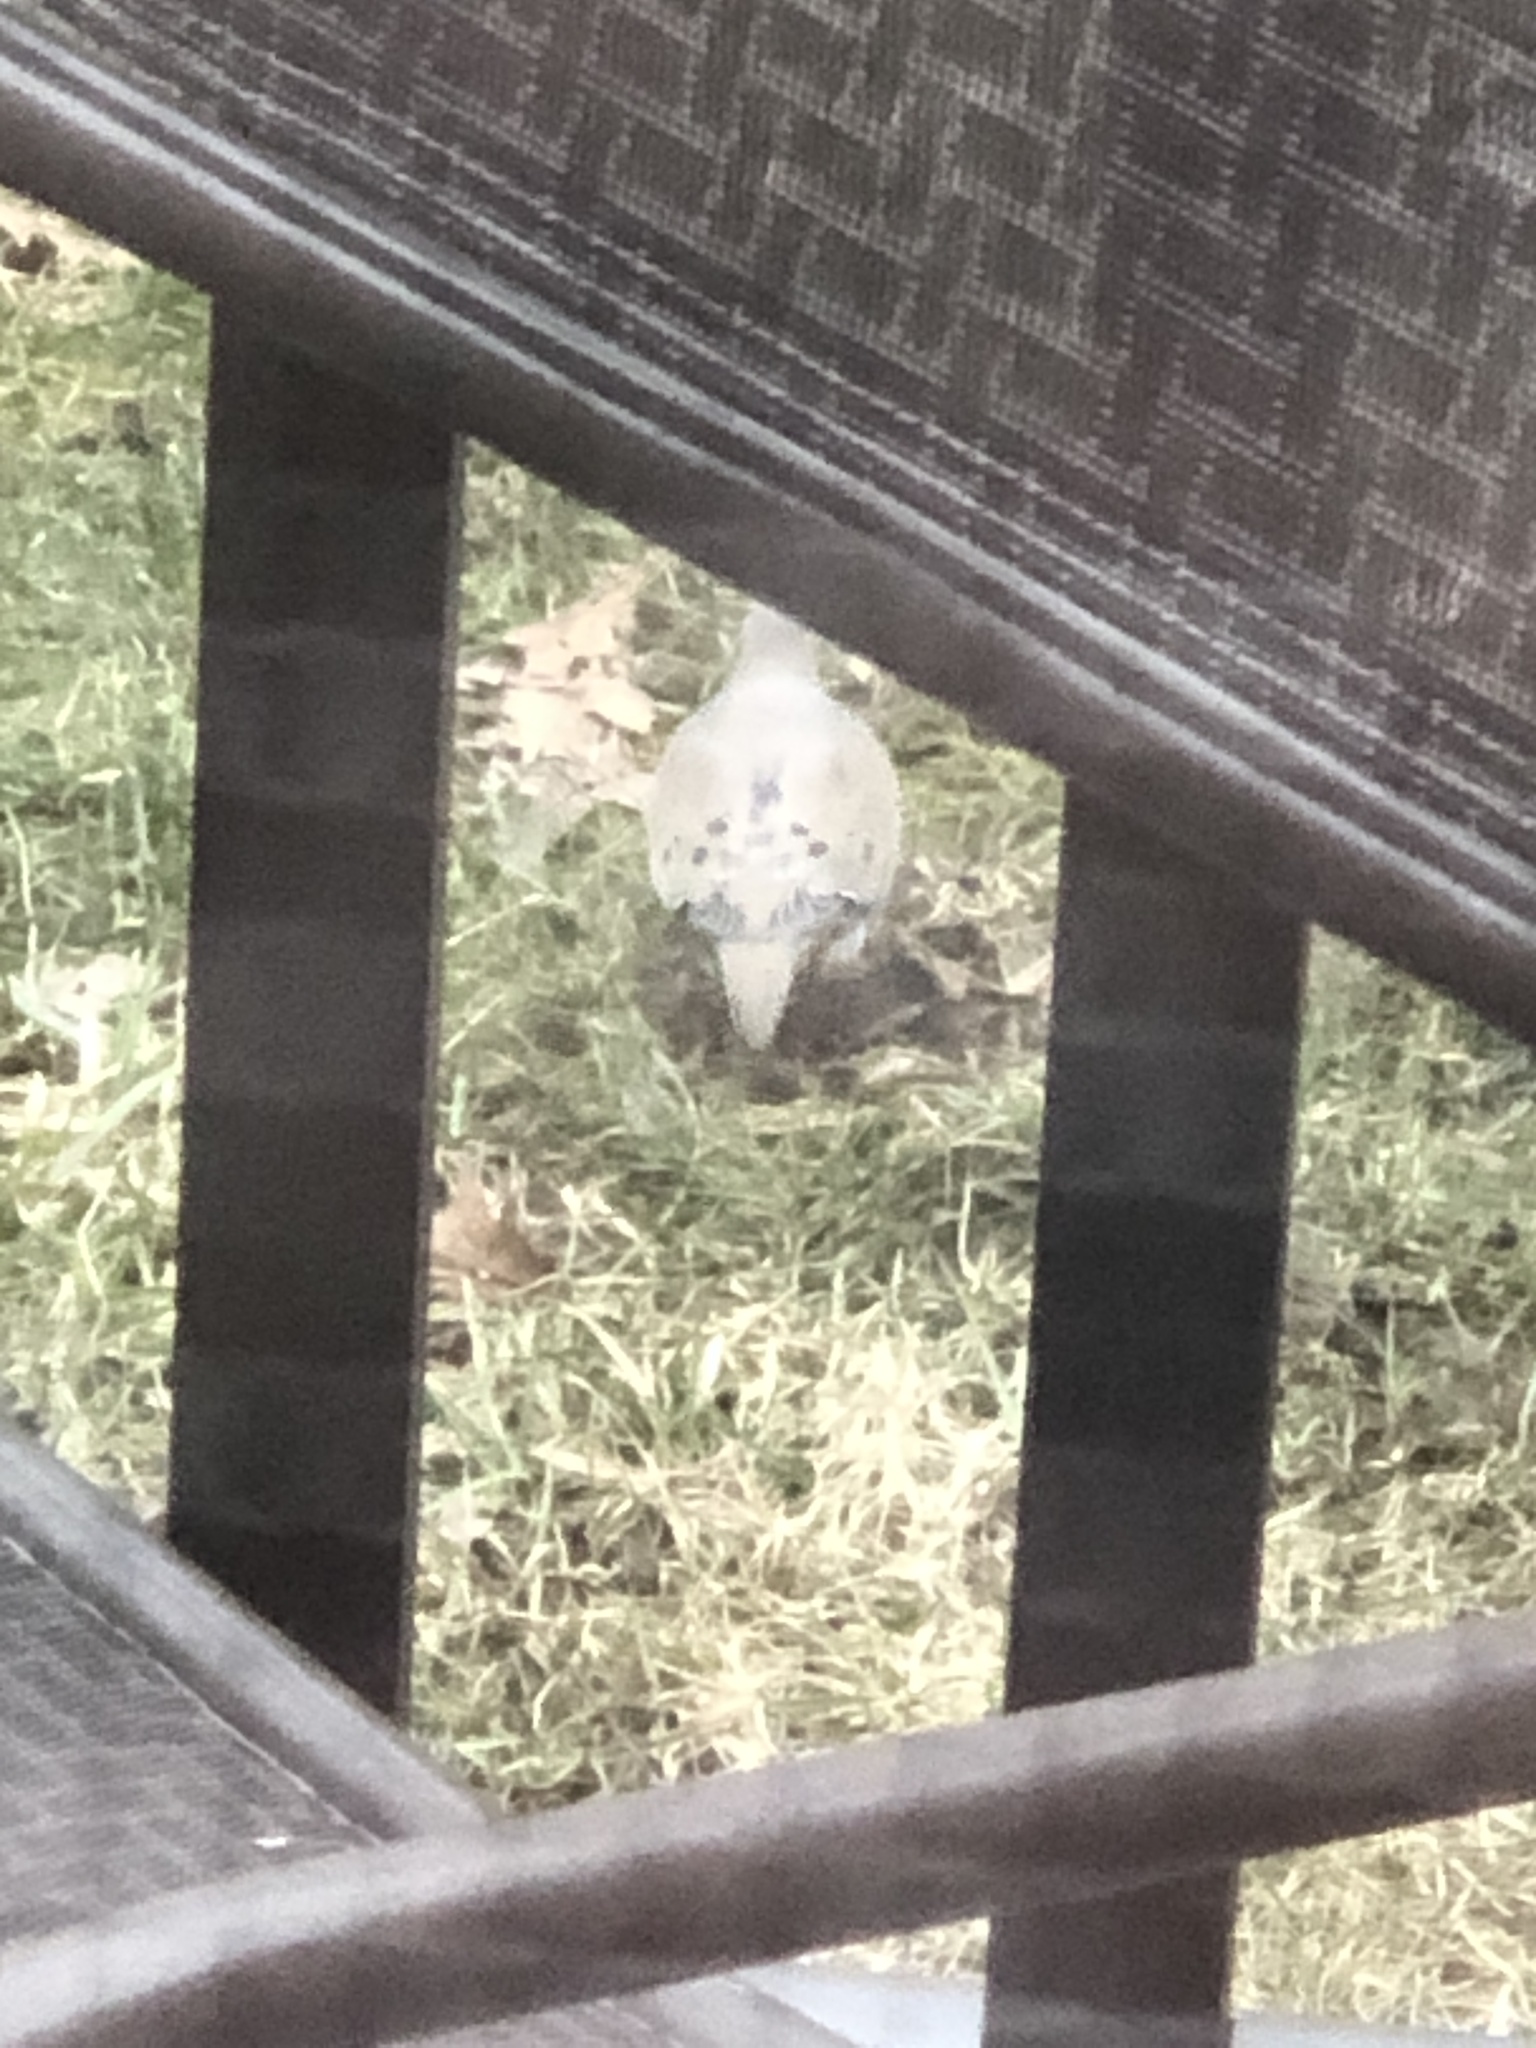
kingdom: Animalia
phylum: Chordata
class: Aves
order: Columbiformes
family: Columbidae
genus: Zenaida
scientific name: Zenaida macroura
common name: Mourning dove
